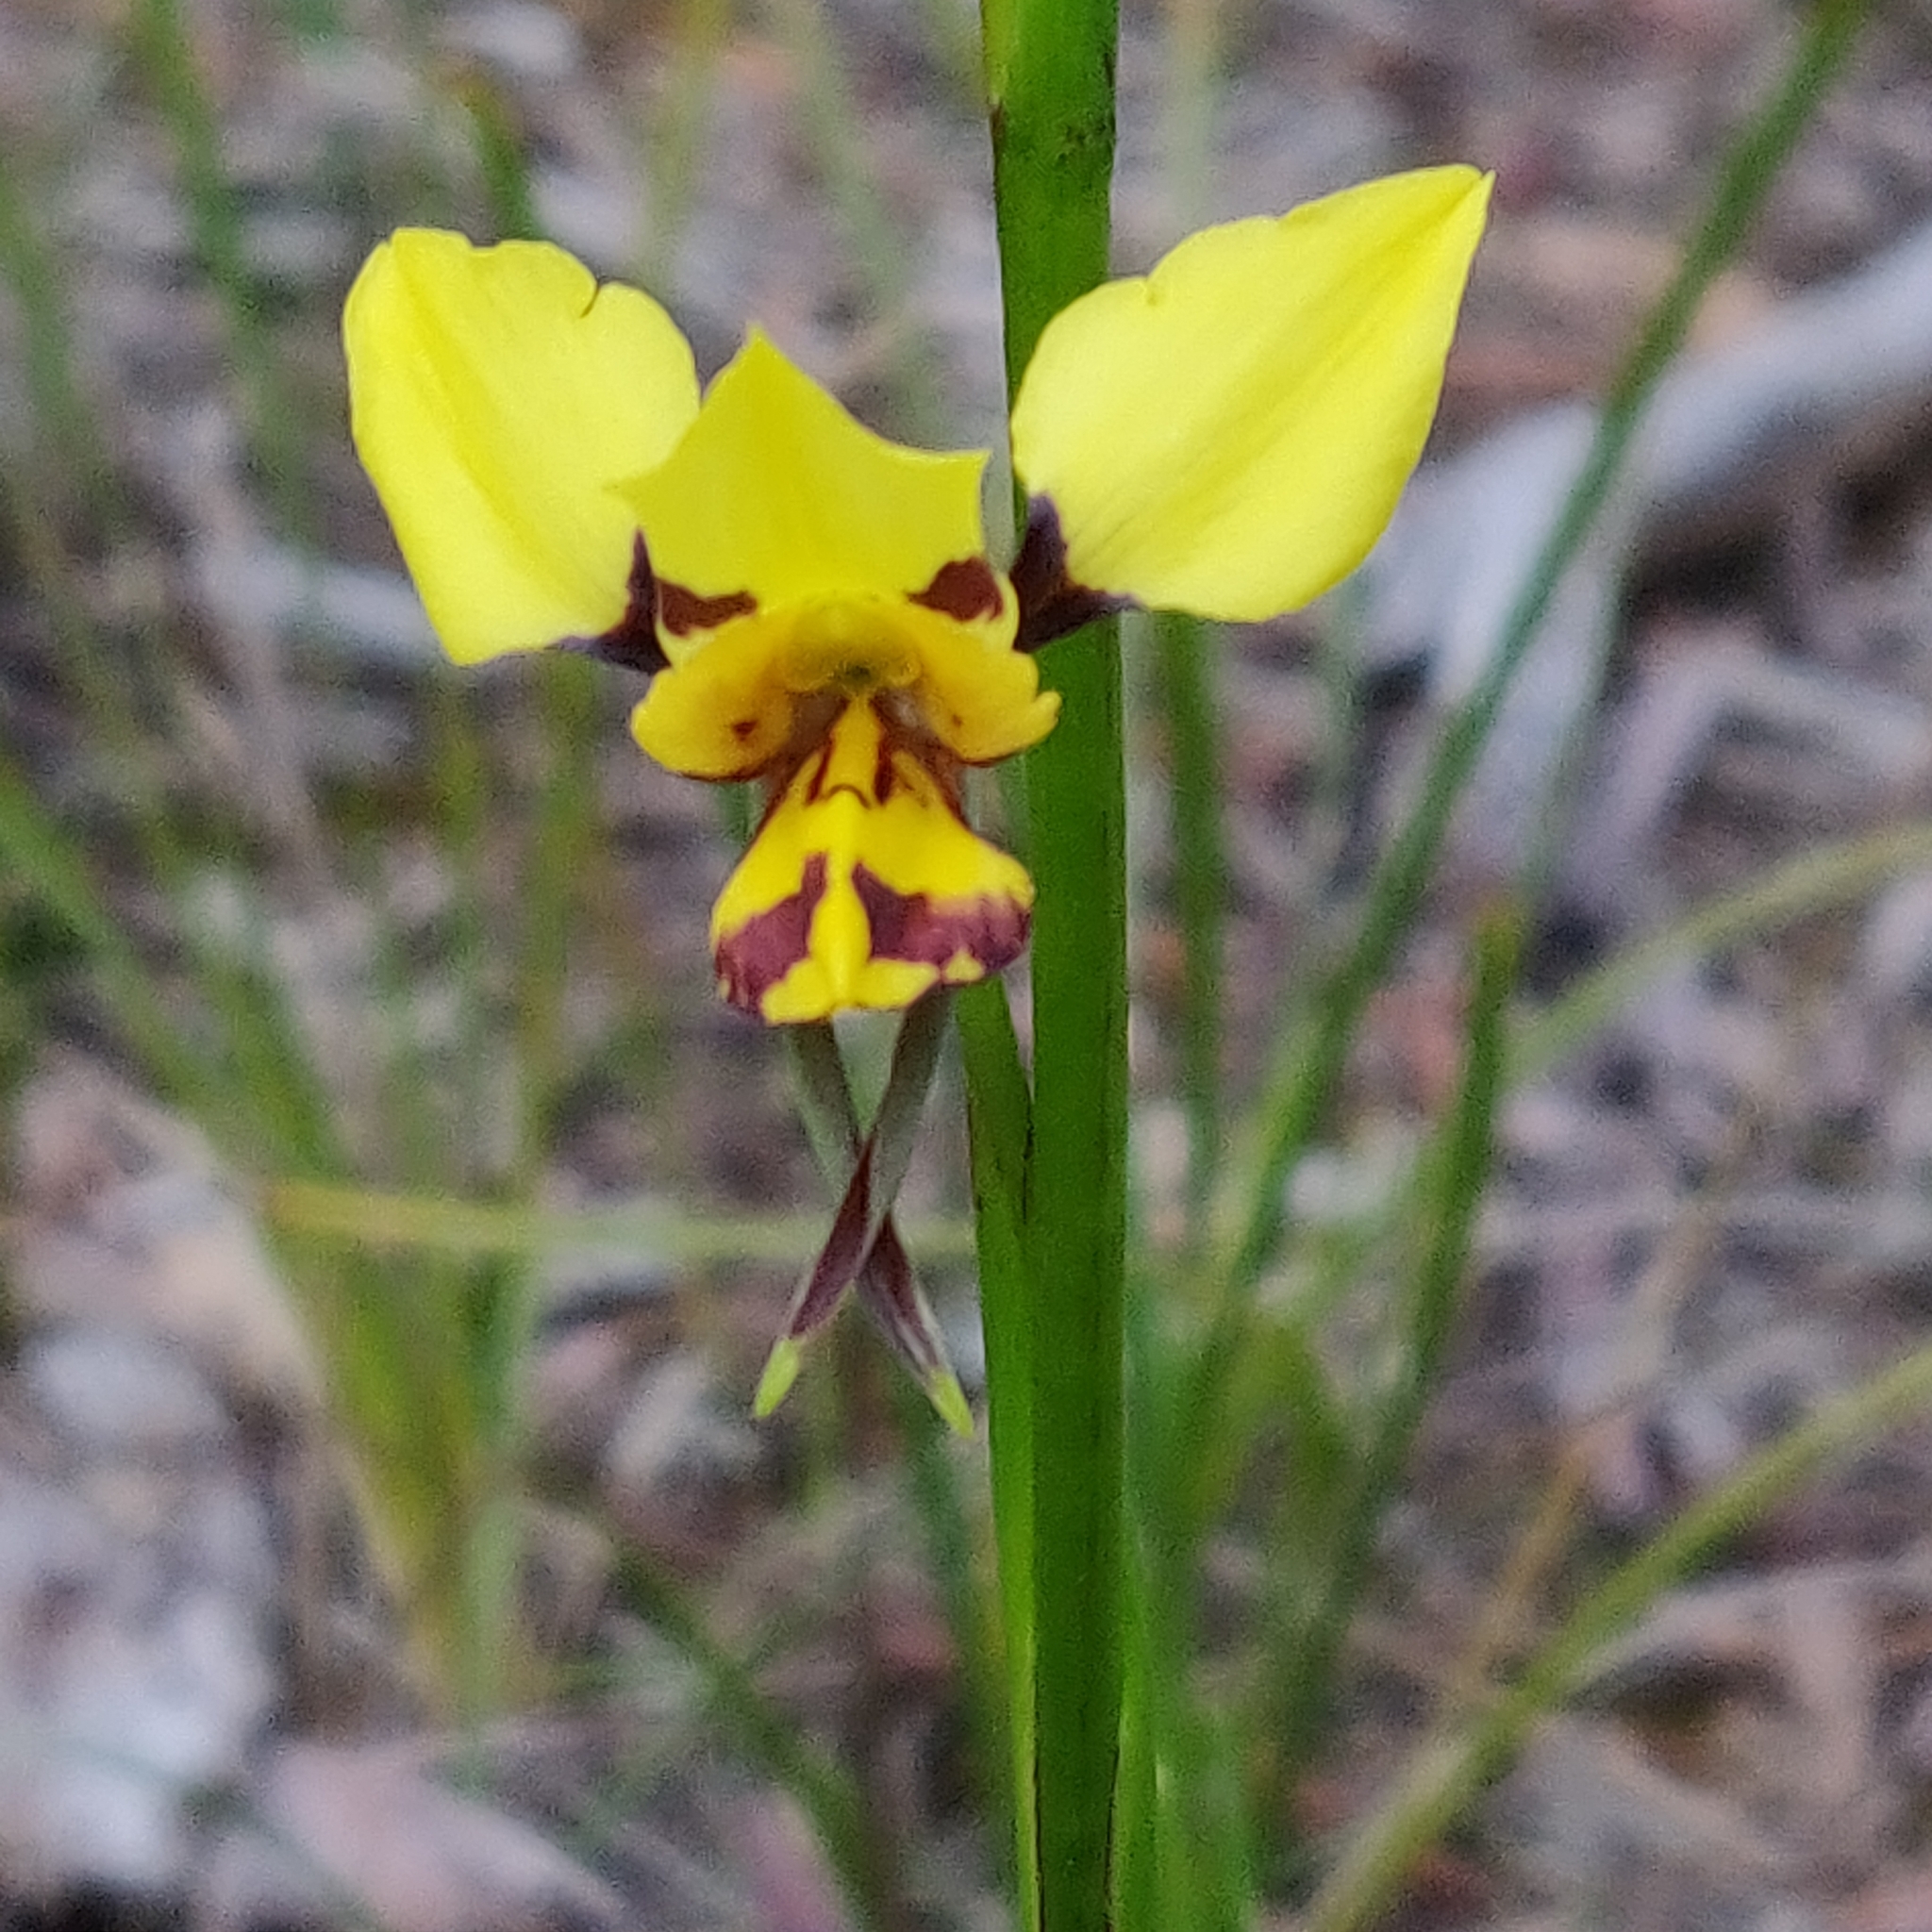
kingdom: Plantae
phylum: Tracheophyta
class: Liliopsida
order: Asparagales
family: Orchidaceae
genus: Diuris
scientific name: Diuris sulphurea
